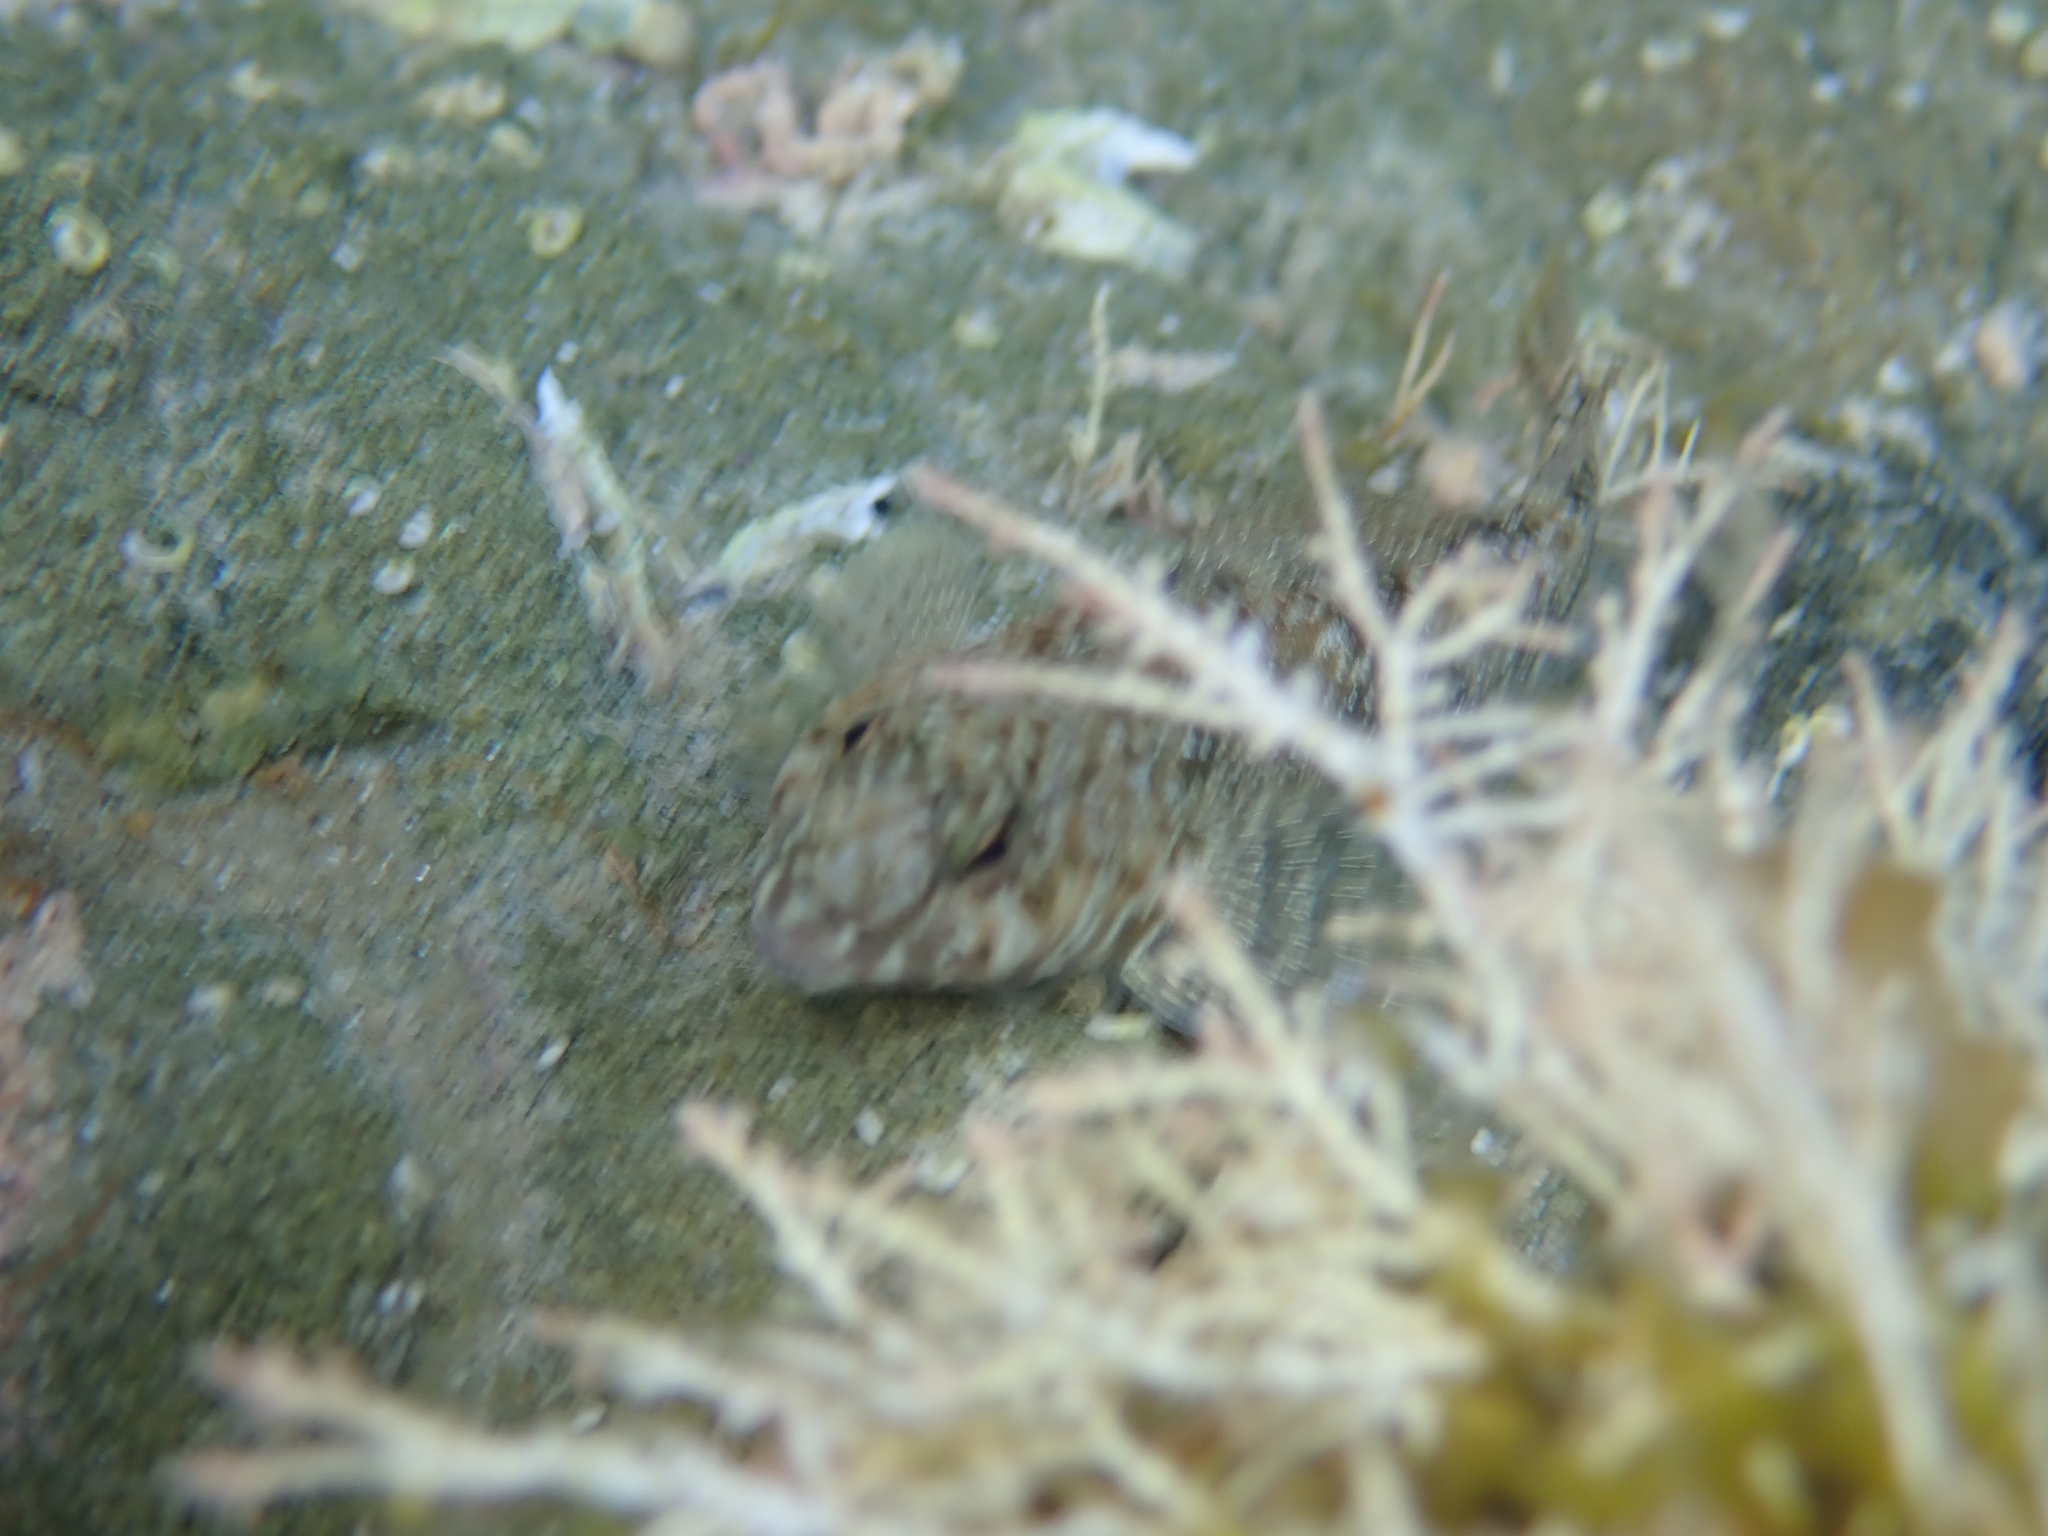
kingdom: Animalia
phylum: Chordata
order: Perciformes
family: Tripterygiidae
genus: Bellapiscis
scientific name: Bellapiscis medius
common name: Twister
